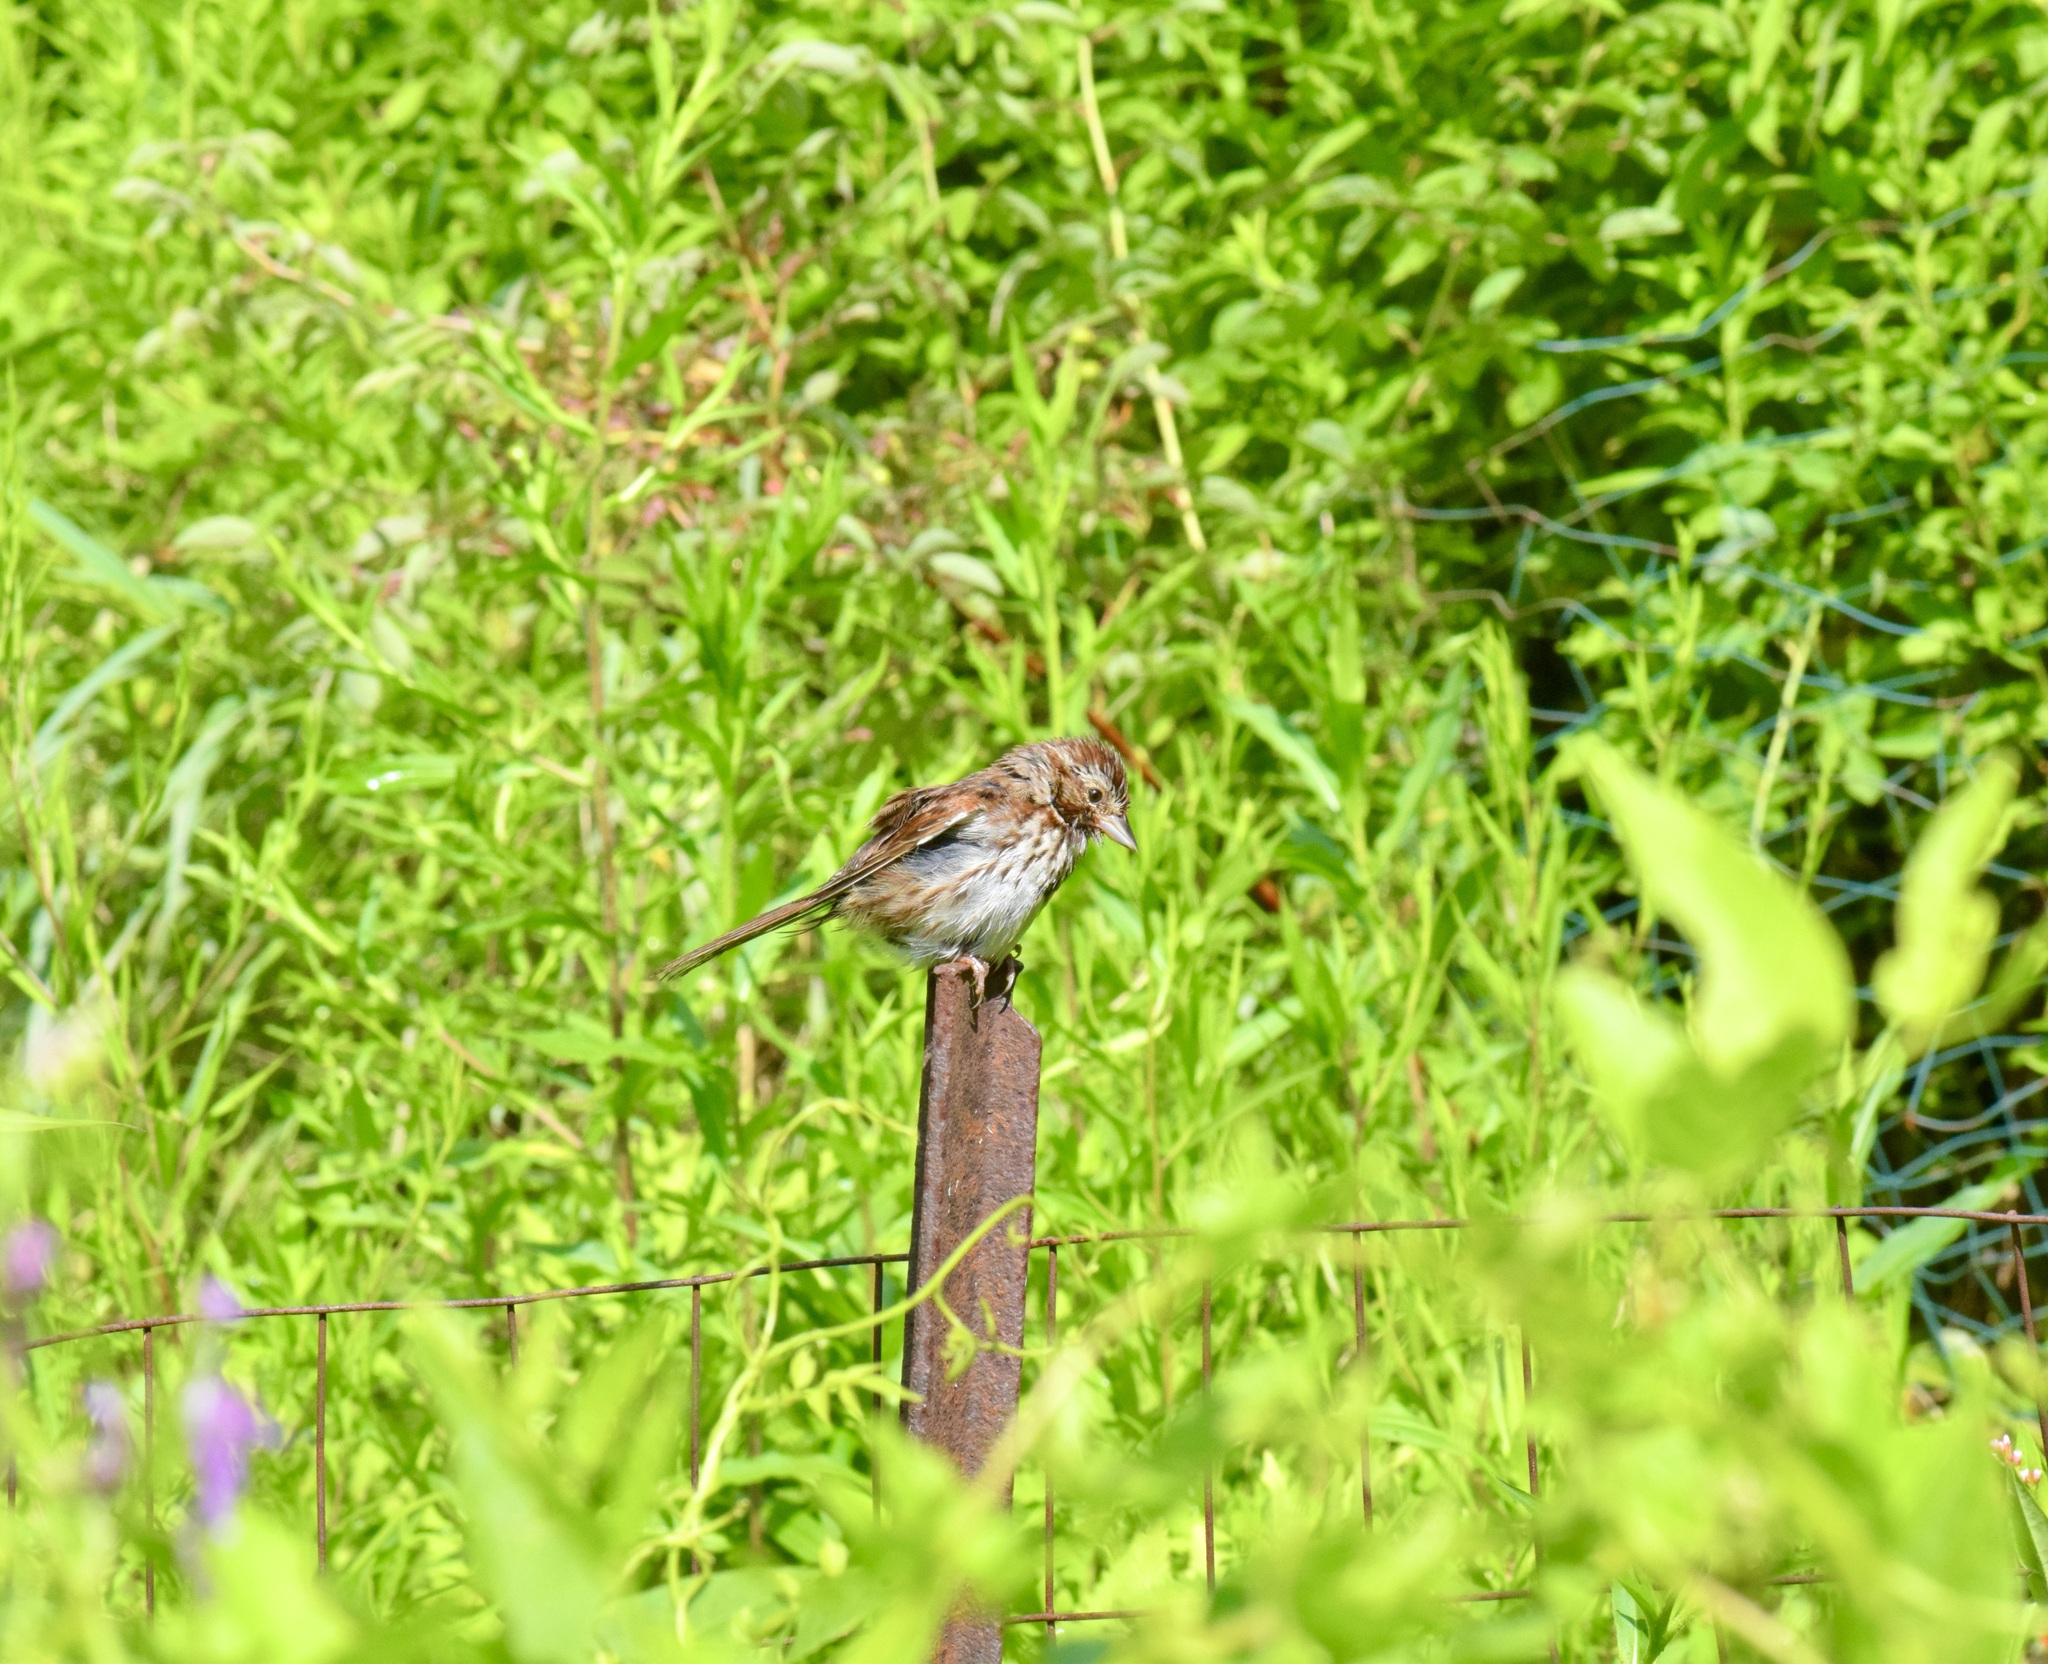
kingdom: Animalia
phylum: Chordata
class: Aves
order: Passeriformes
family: Passerellidae
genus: Melospiza
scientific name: Melospiza melodia
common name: Song sparrow
